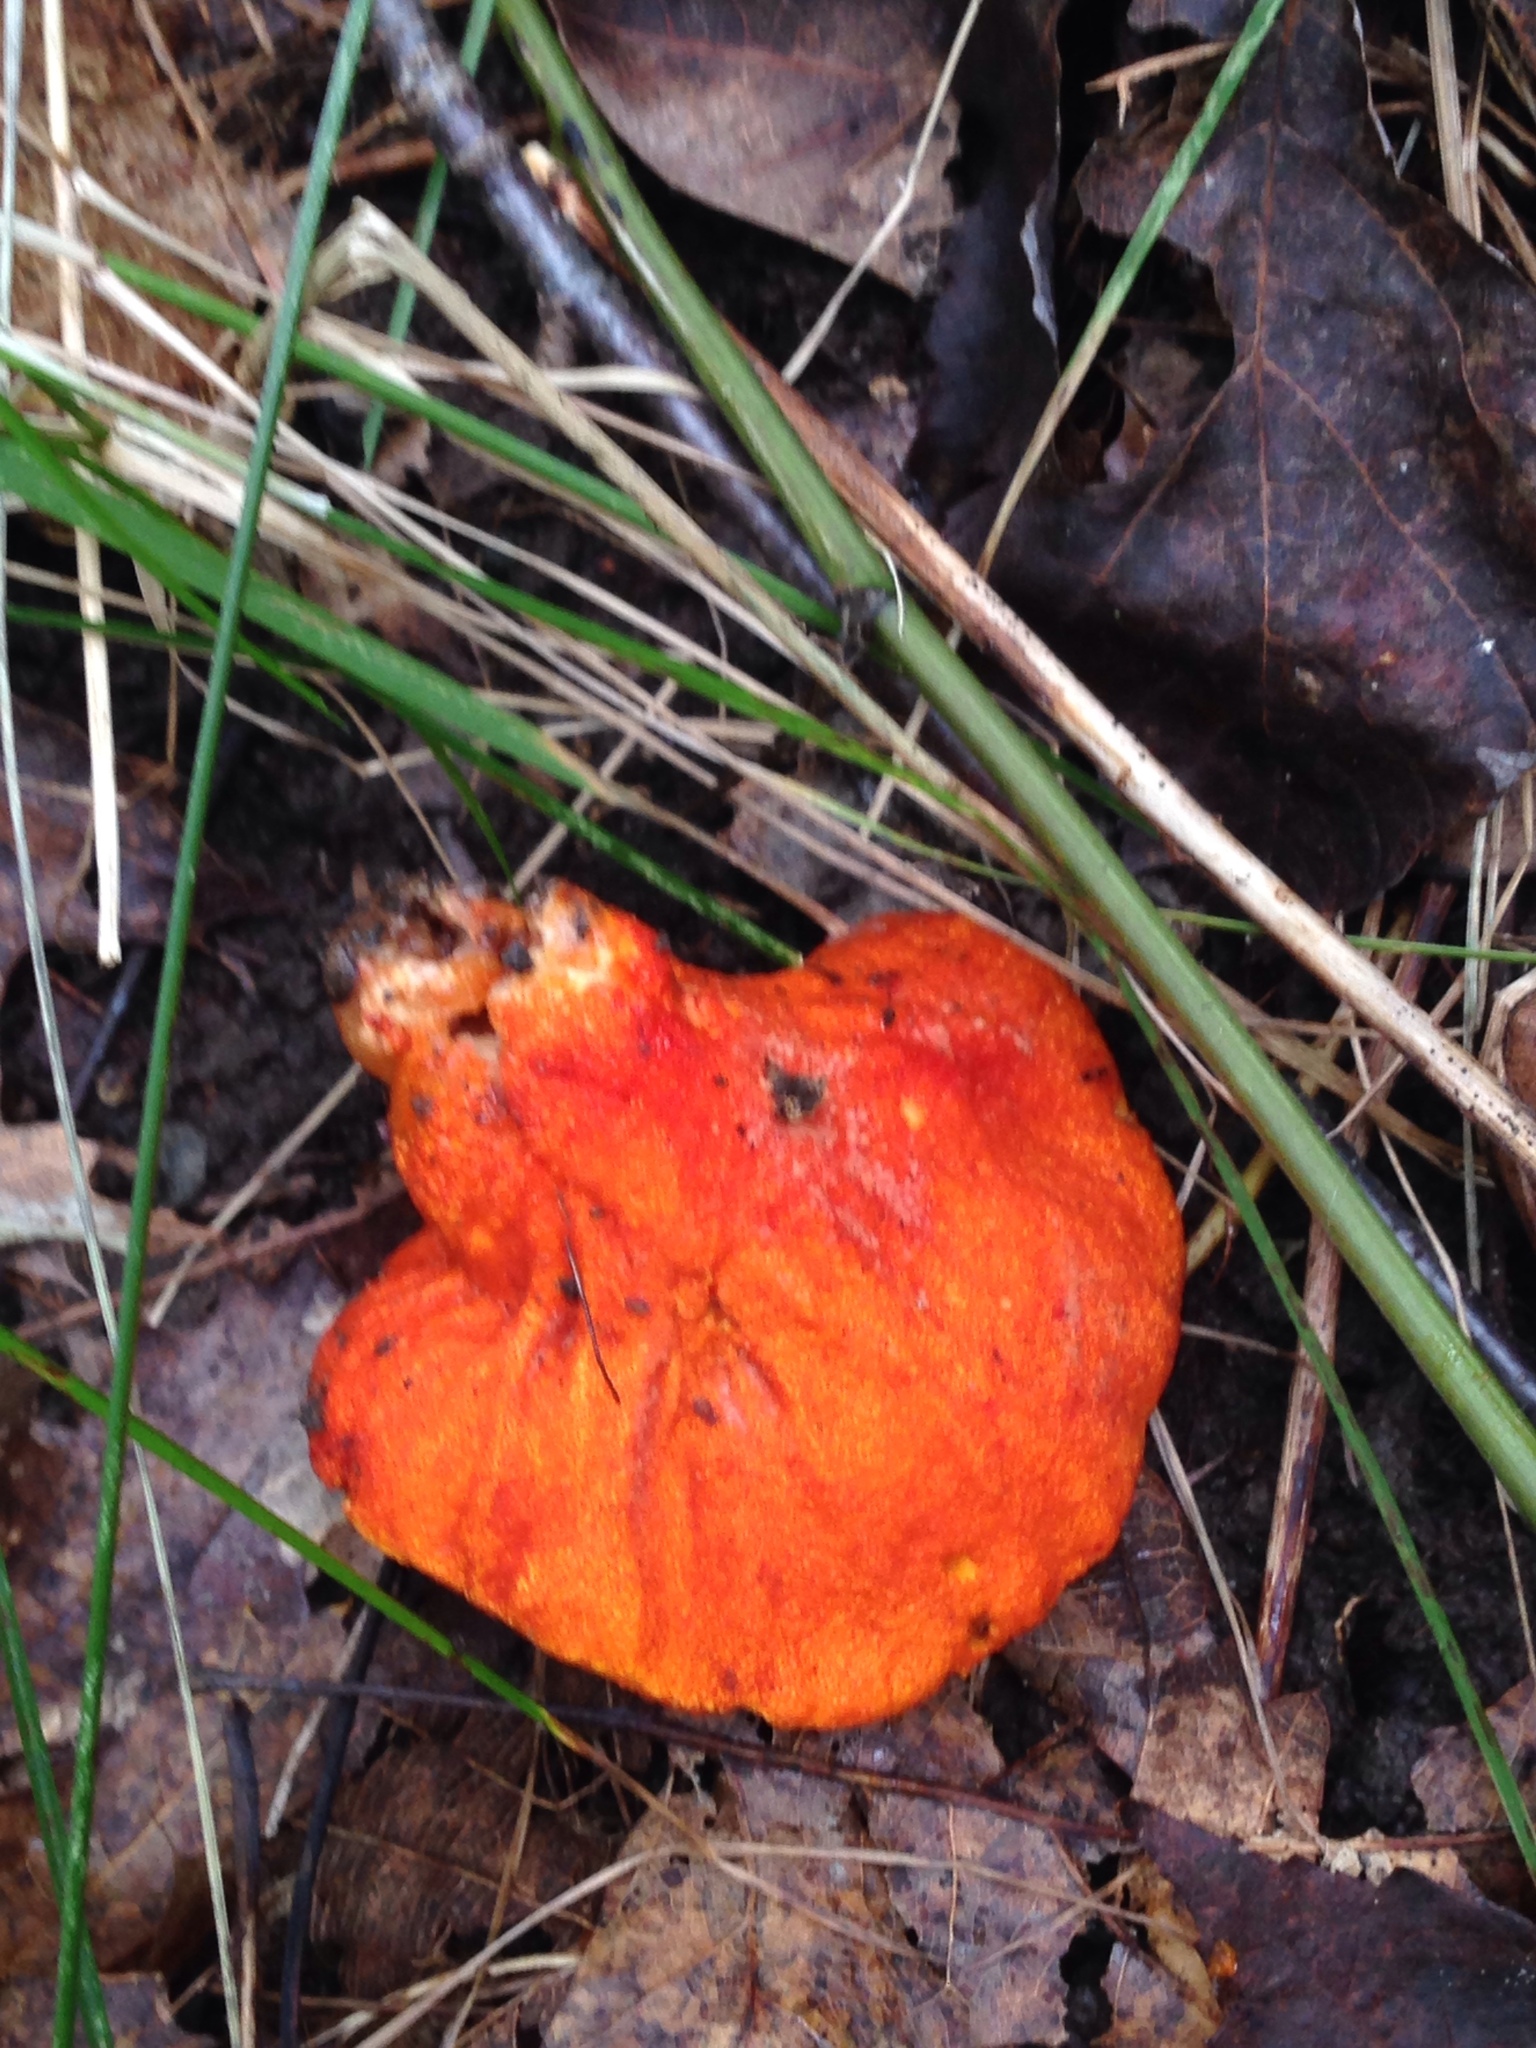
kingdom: Fungi
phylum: Ascomycota
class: Sordariomycetes
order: Hypocreales
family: Hypocreaceae
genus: Hypomyces
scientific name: Hypomyces lactifluorum
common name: Lobster mushroom
